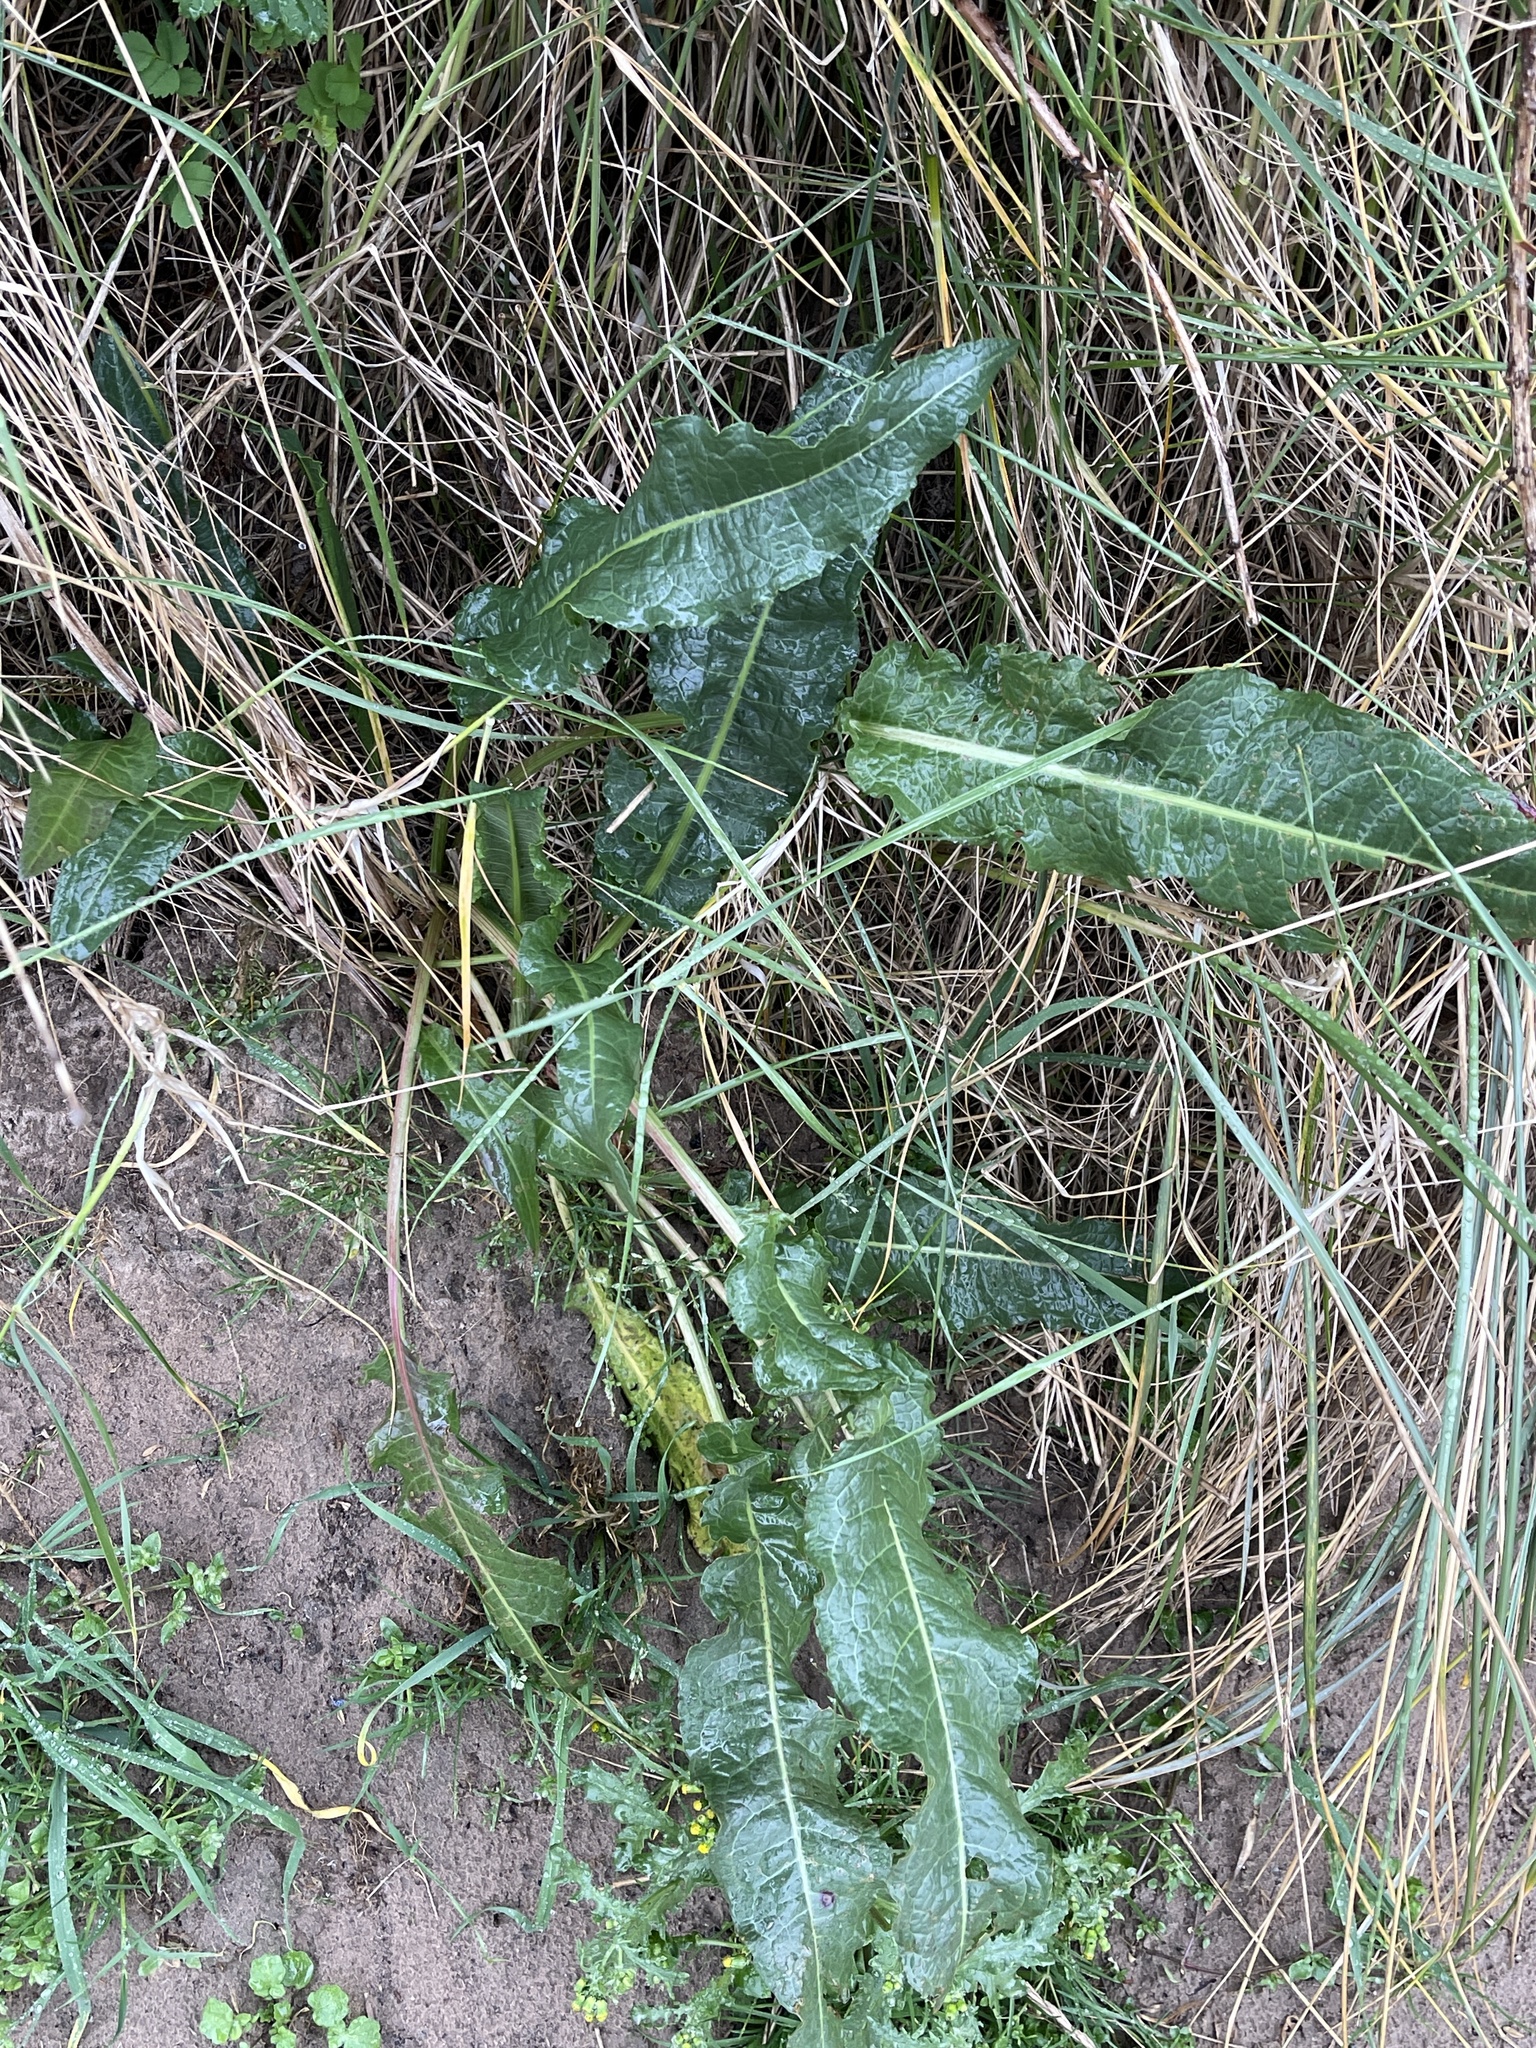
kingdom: Plantae
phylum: Tracheophyta
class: Magnoliopsida
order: Caryophyllales
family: Polygonaceae
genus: Rumex
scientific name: Rumex crispus
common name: Curled dock
